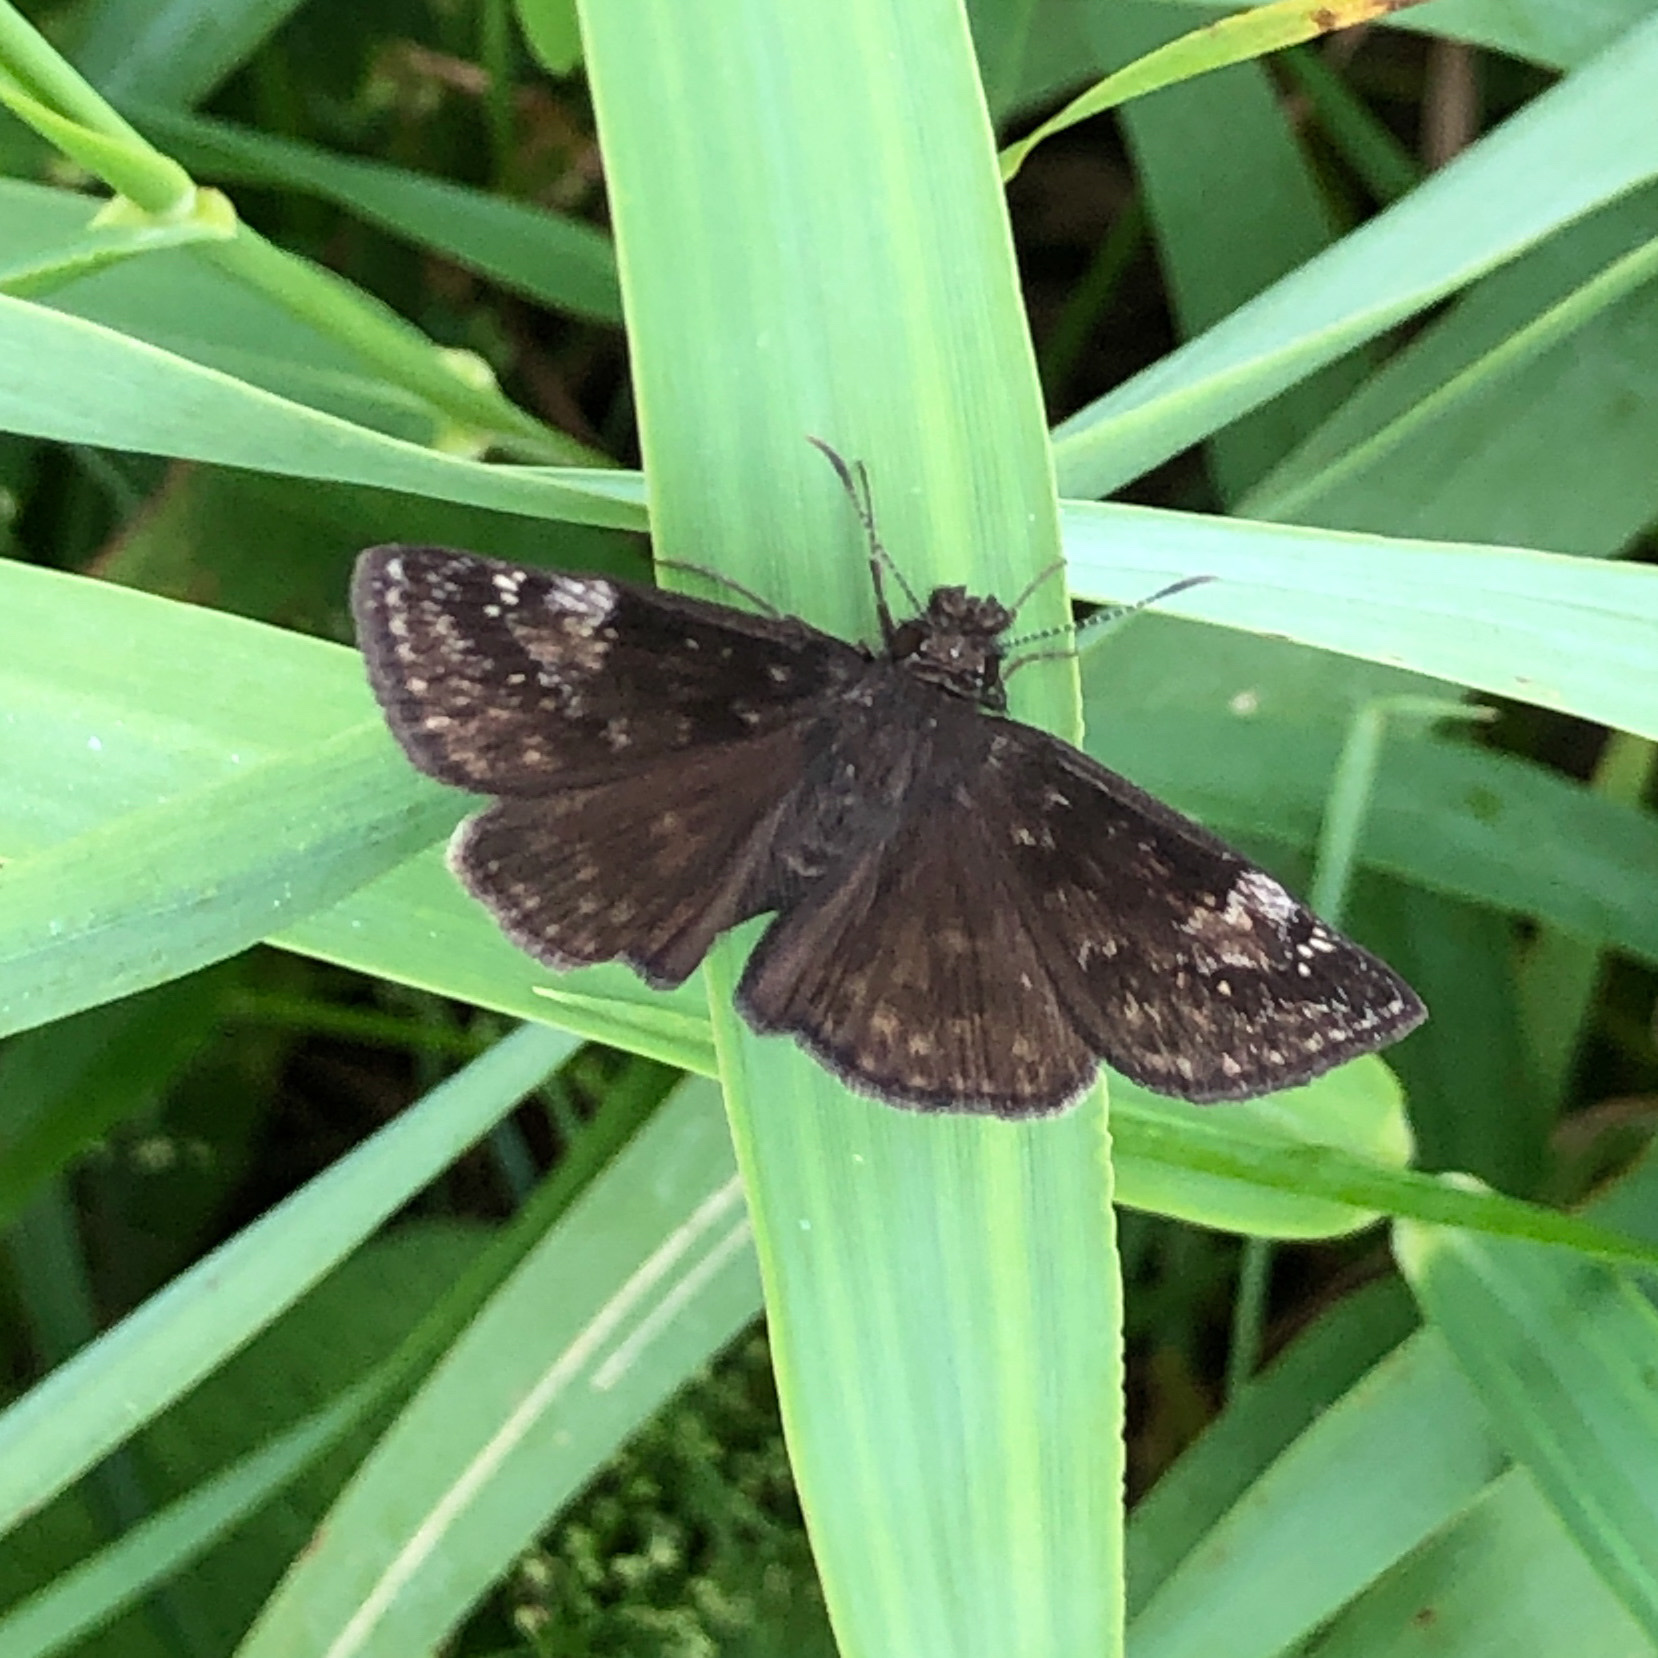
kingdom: Animalia
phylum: Arthropoda
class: Insecta
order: Lepidoptera
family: Hesperiidae
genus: Erynnis
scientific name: Erynnis baptisiae
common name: Wild indigo duskywing
